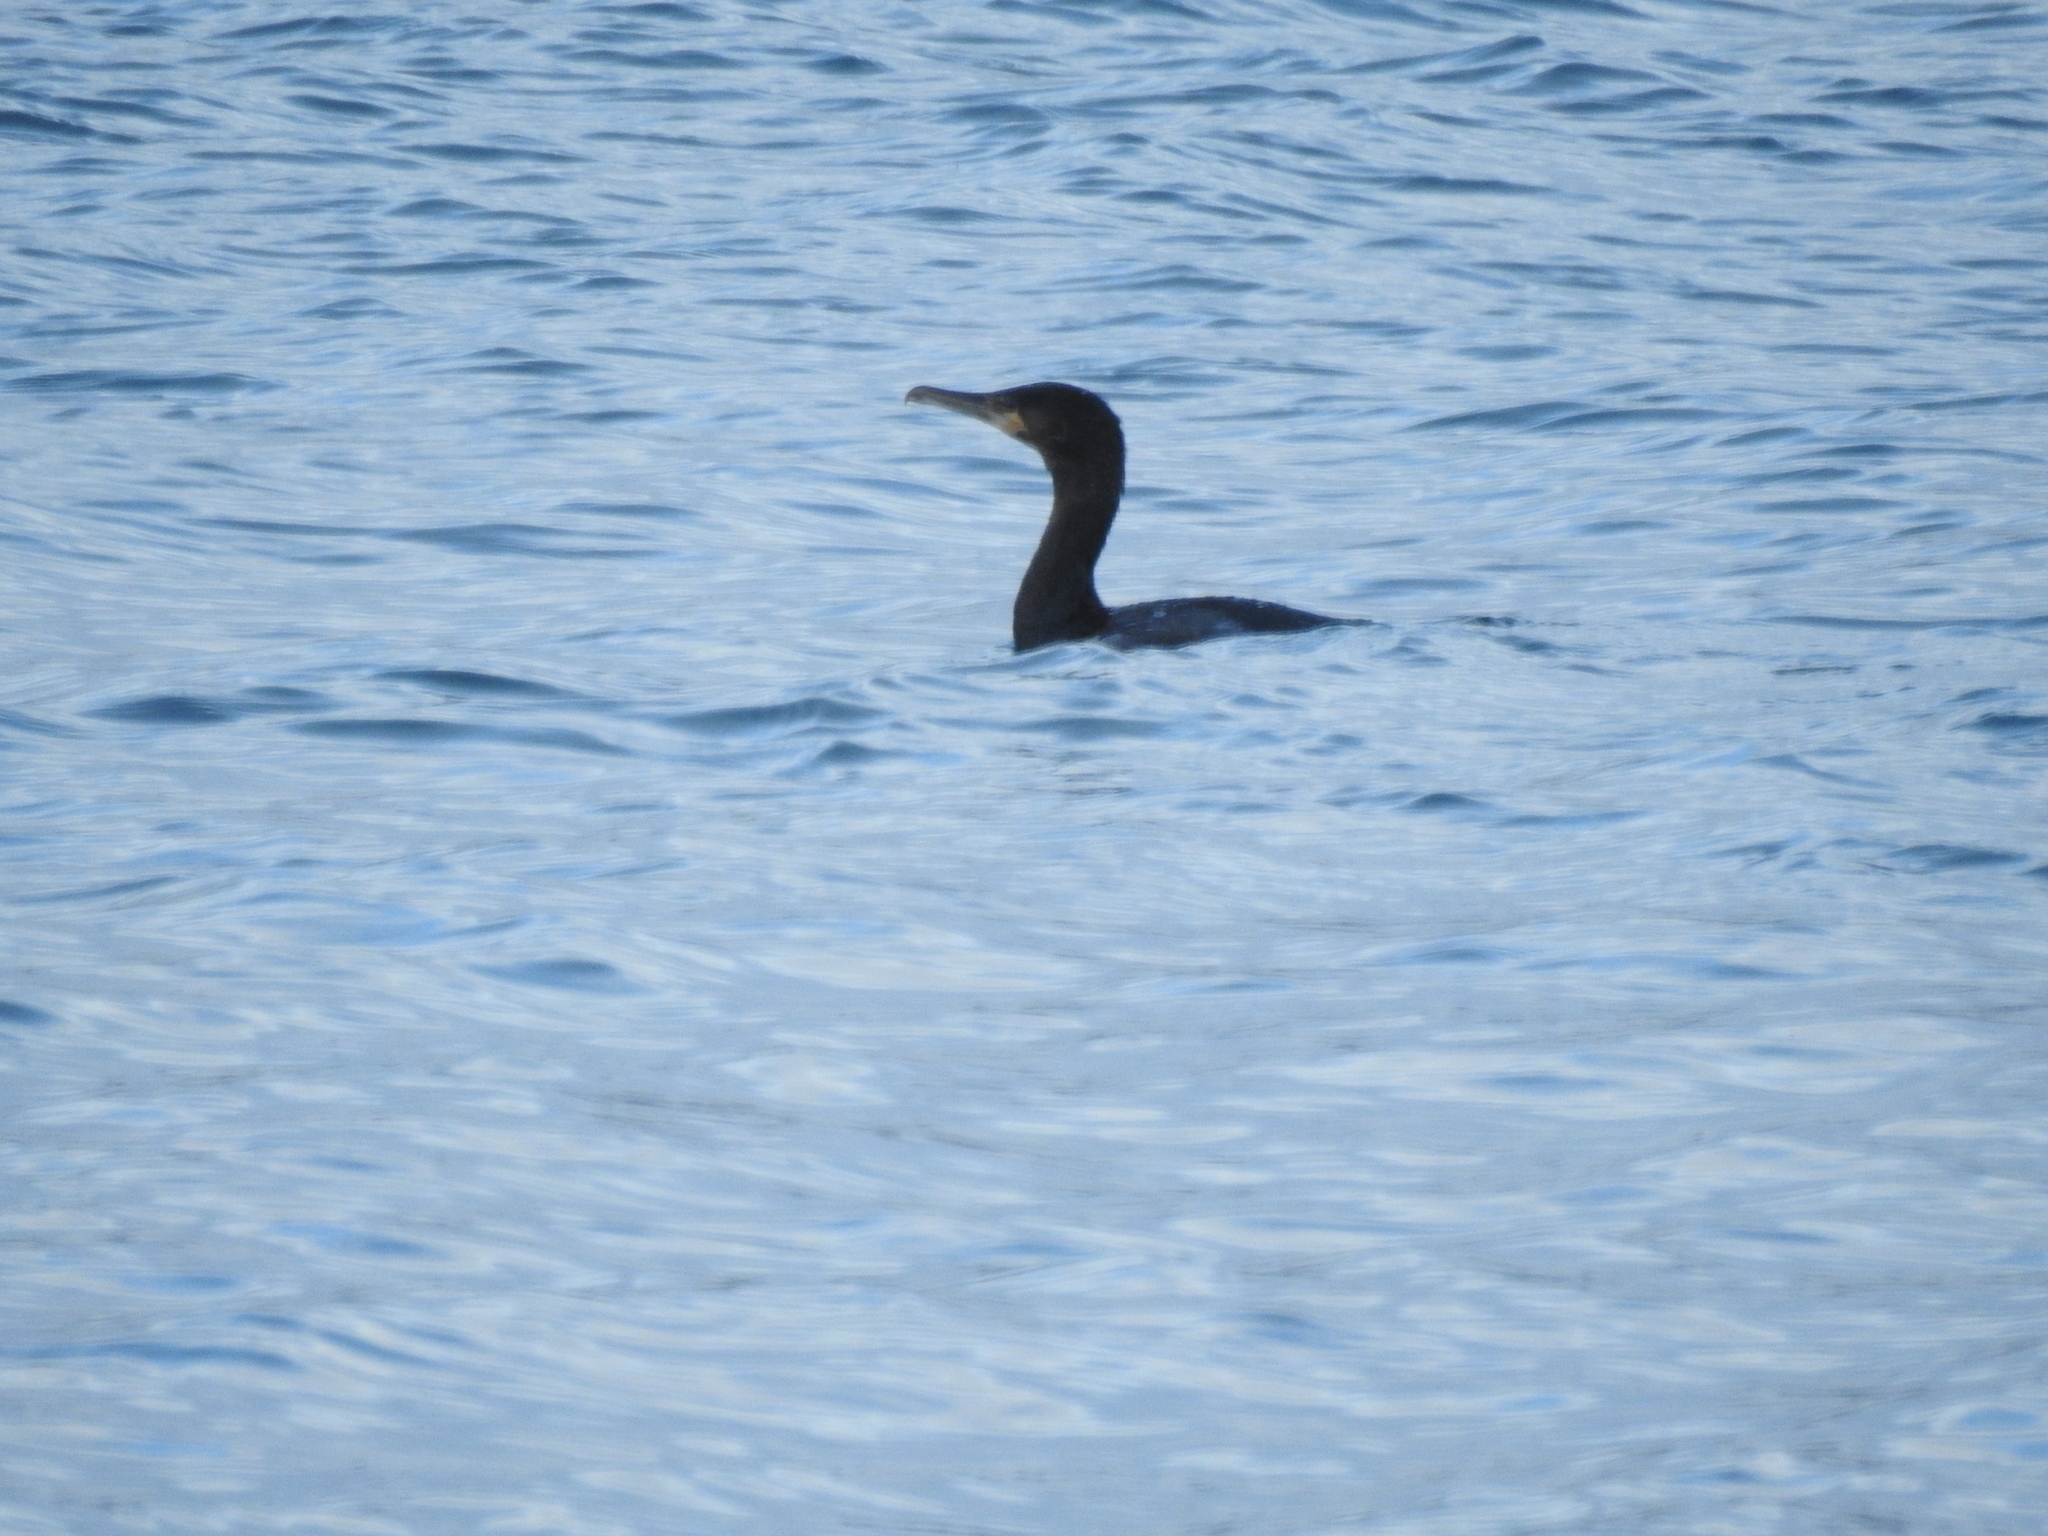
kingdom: Animalia
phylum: Chordata
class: Aves
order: Suliformes
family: Phalacrocoracidae
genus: Phalacrocorax
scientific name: Phalacrocorax carbo
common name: Great cormorant
